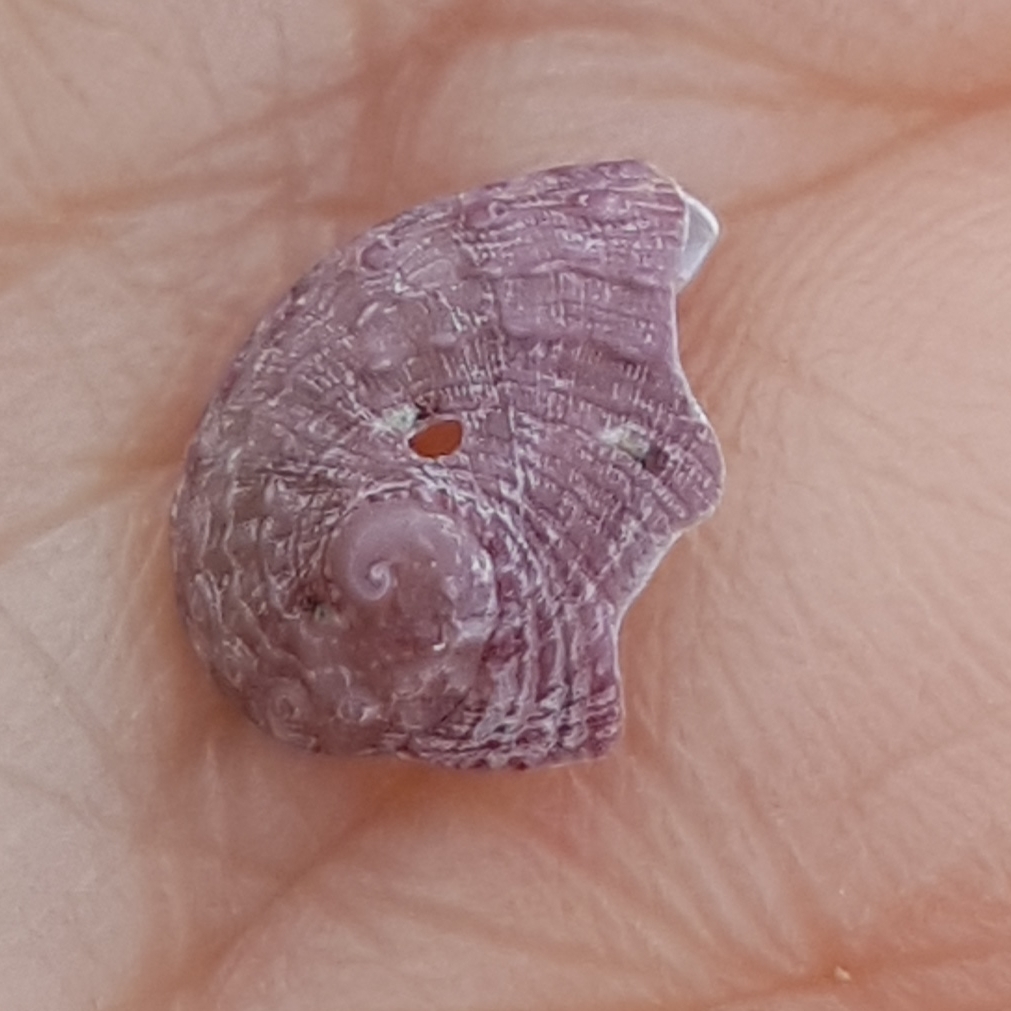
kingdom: Animalia
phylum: Mollusca
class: Gastropoda
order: Lepetellida
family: Haliotidae
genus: Haliotis
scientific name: Haliotis tuberculata
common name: Green ormer
